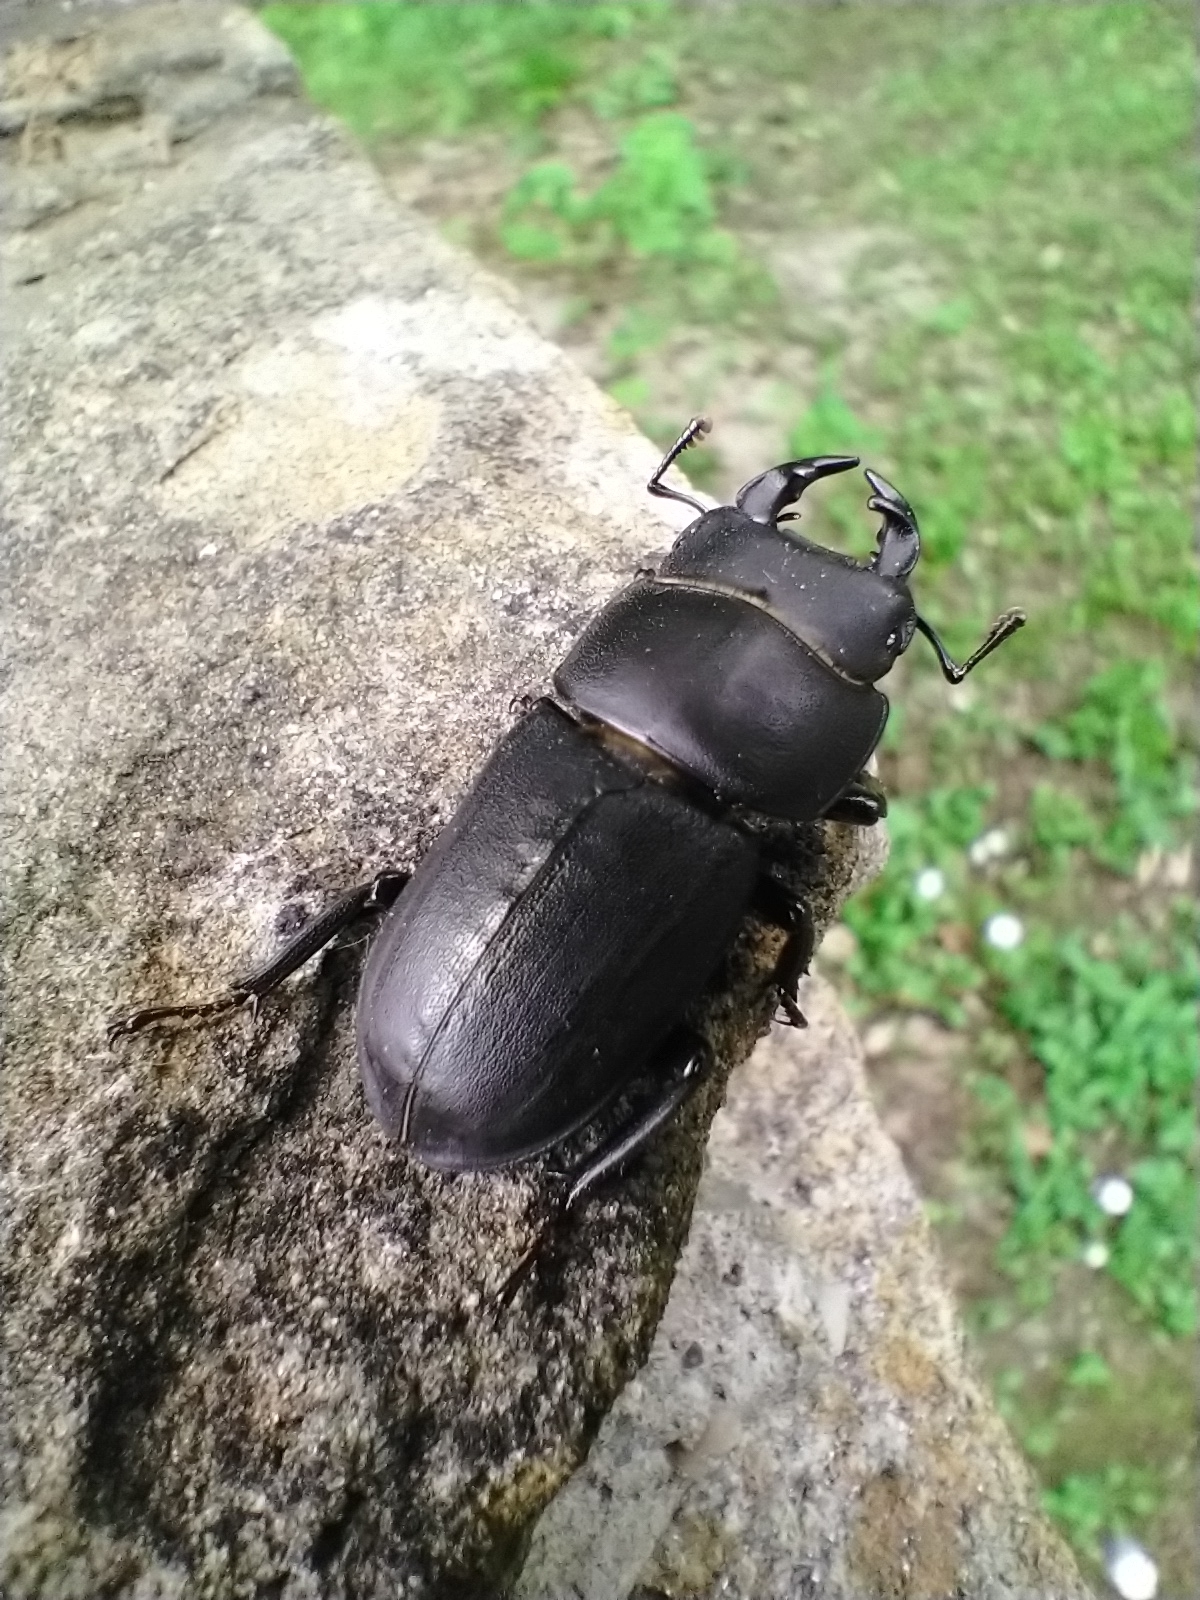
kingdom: Animalia
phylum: Arthropoda
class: Insecta
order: Coleoptera
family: Lucanidae
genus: Dorcus
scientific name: Dorcus parallelipipedus
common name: Lesser stag beetle
